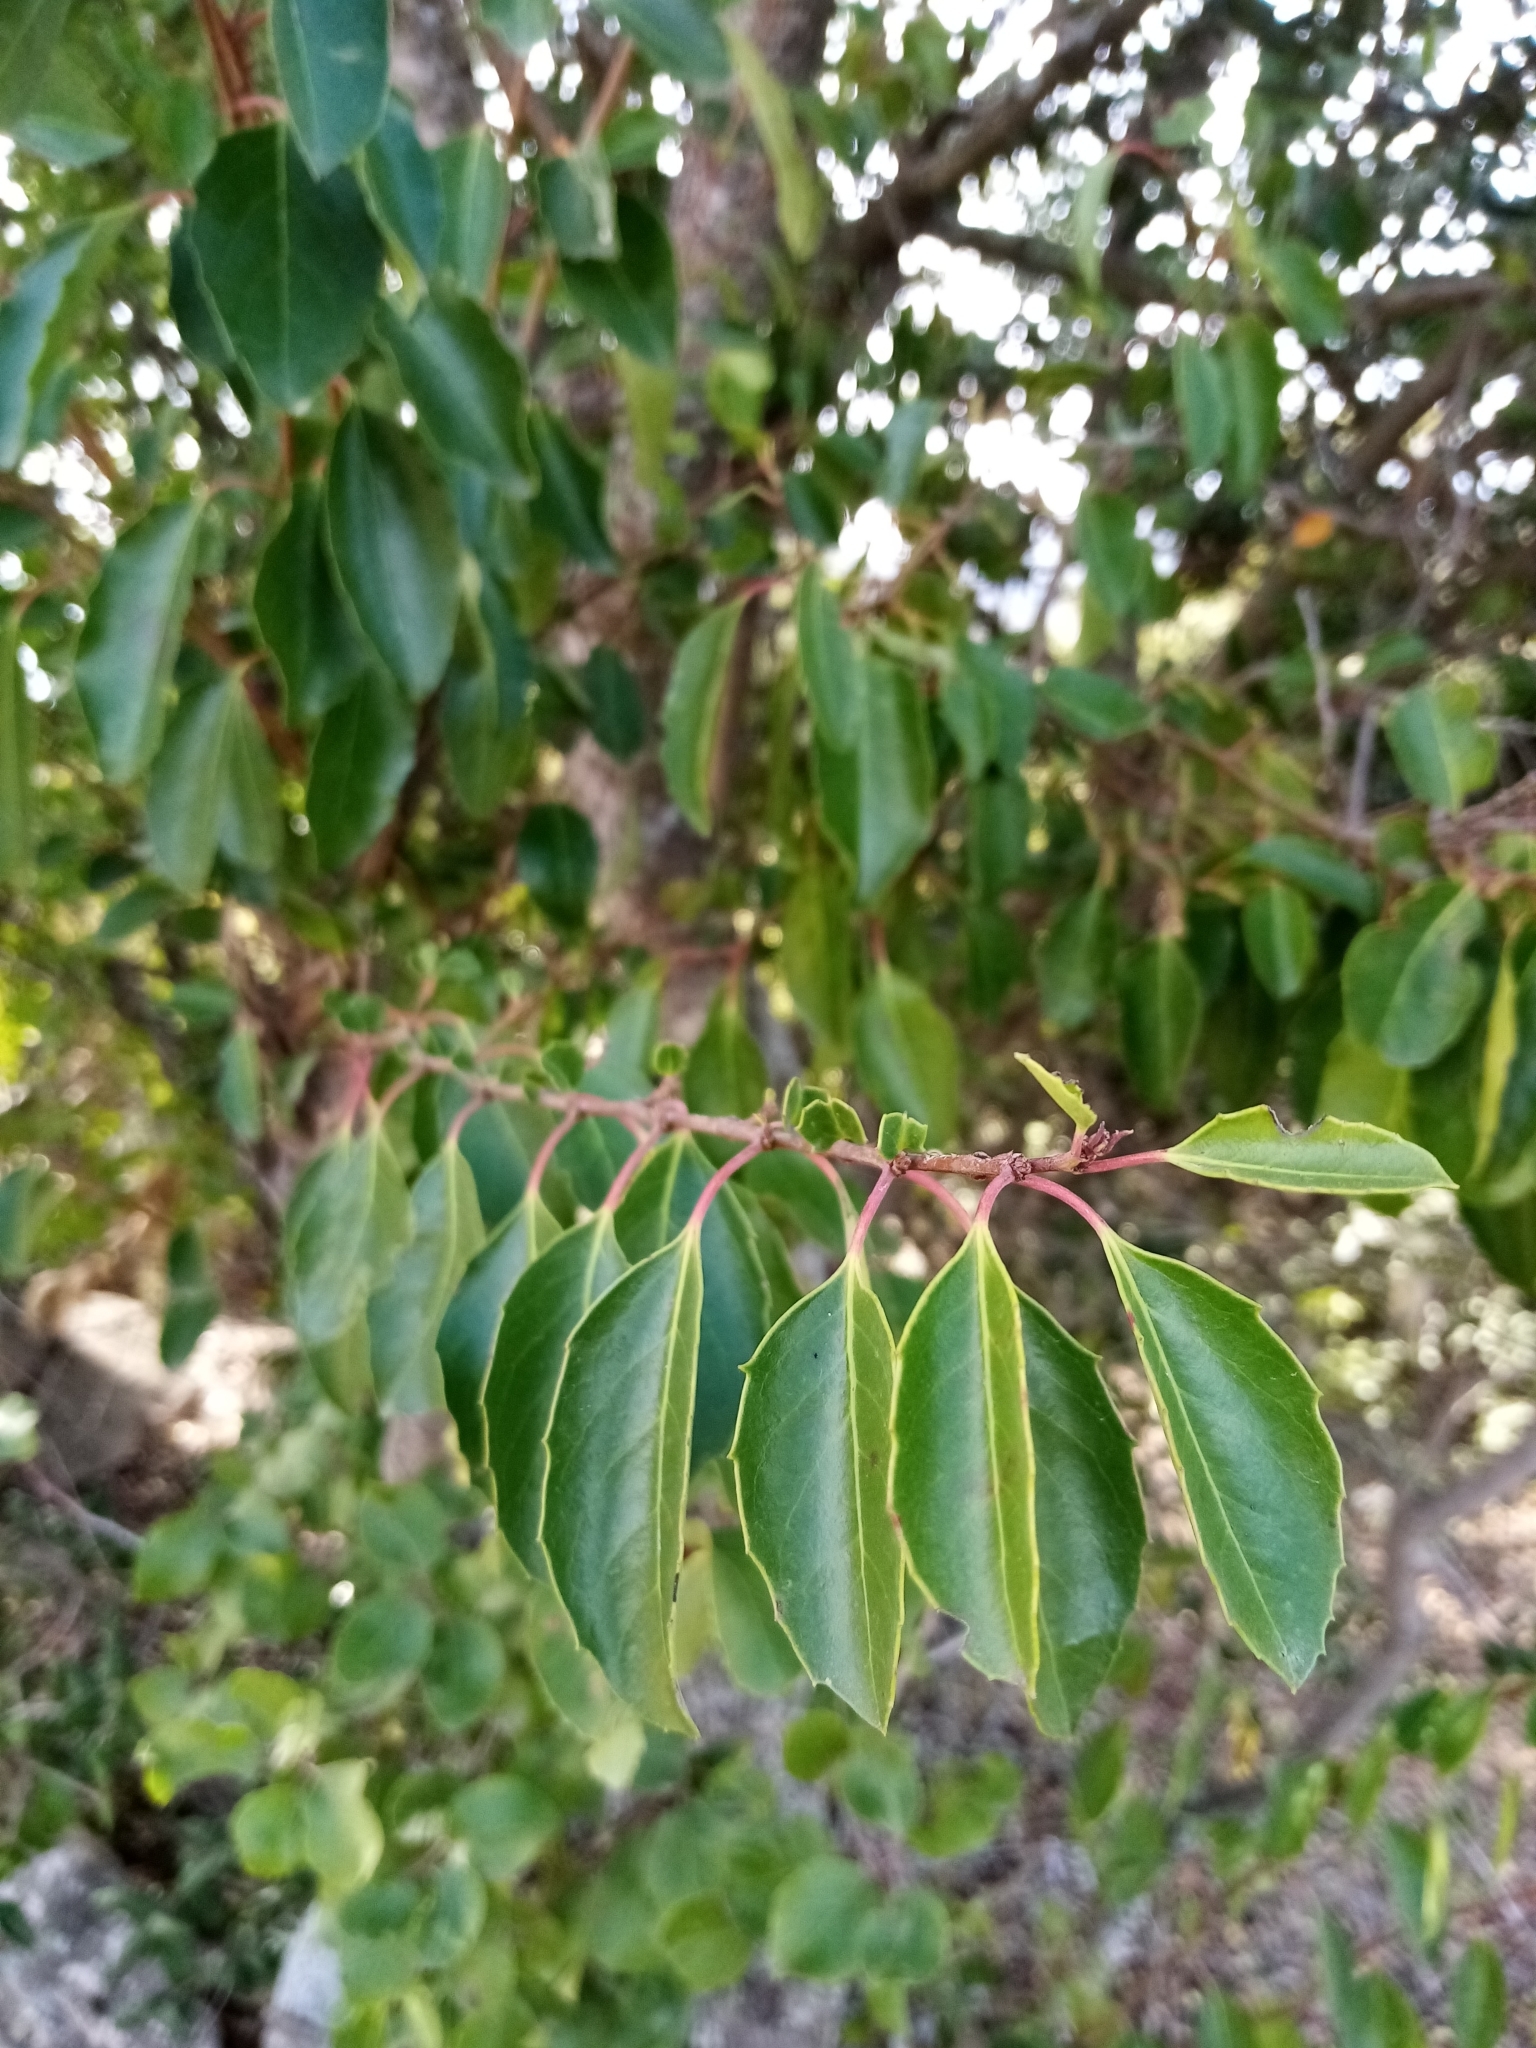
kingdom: Plantae
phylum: Tracheophyta
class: Magnoliopsida
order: Malpighiales
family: Salicaceae
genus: Azara
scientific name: Azara petiolaris
